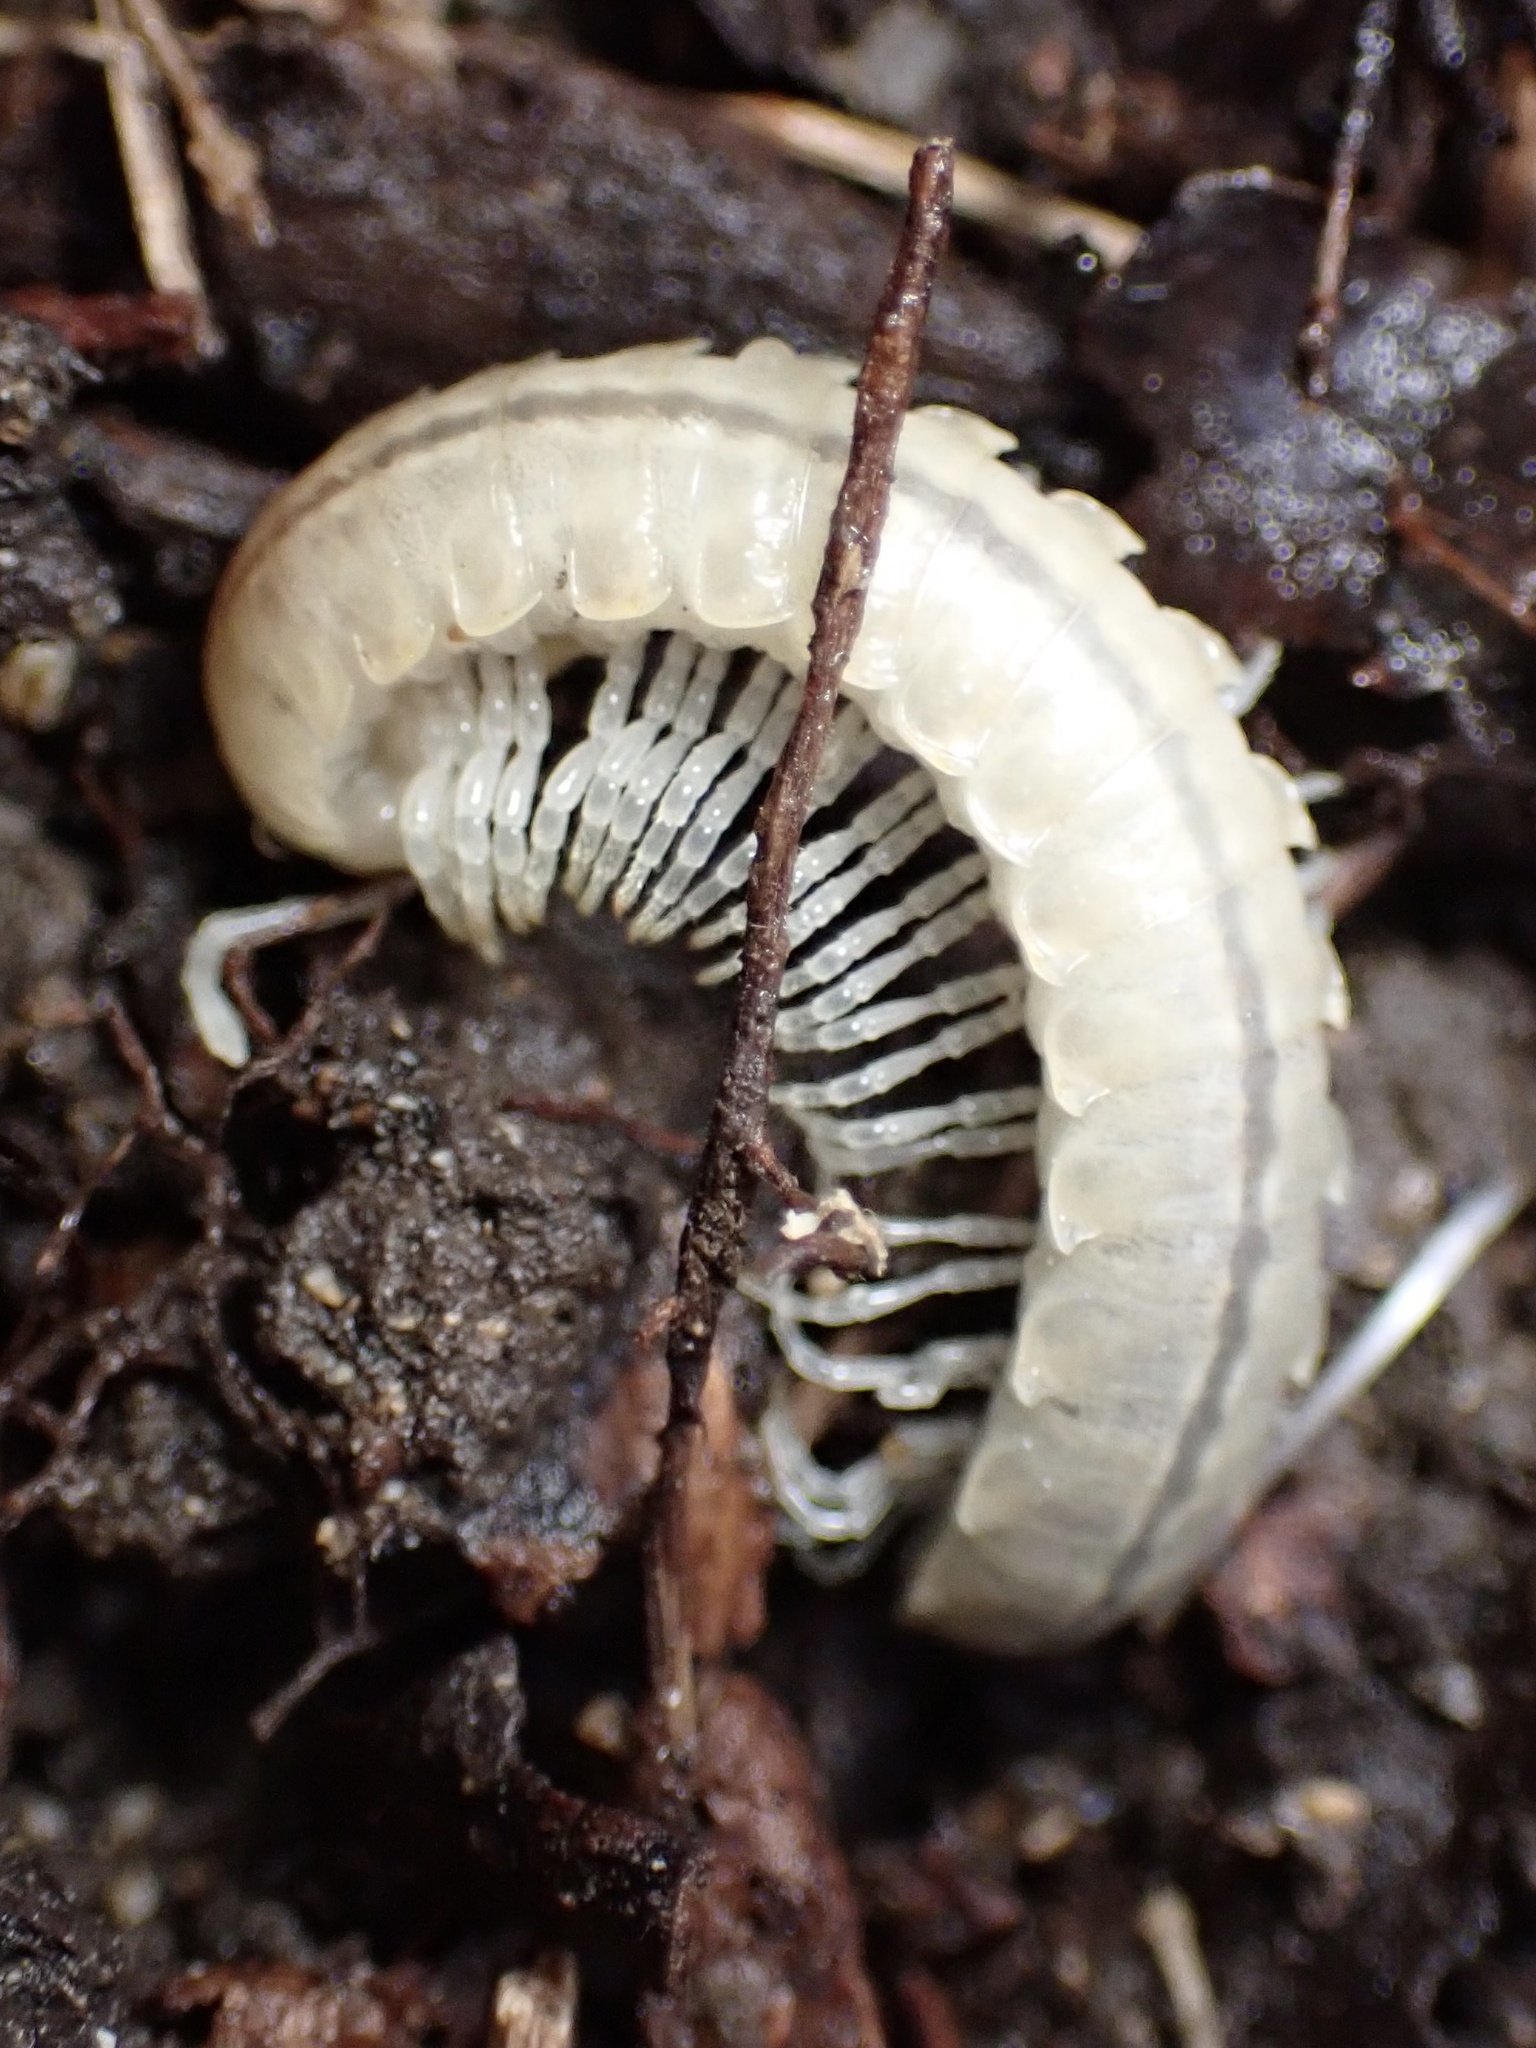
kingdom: Animalia
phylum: Arthropoda
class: Diplopoda
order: Polydesmida
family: Xystodesmidae
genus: Xystocheir
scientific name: Xystocheir dissecta
